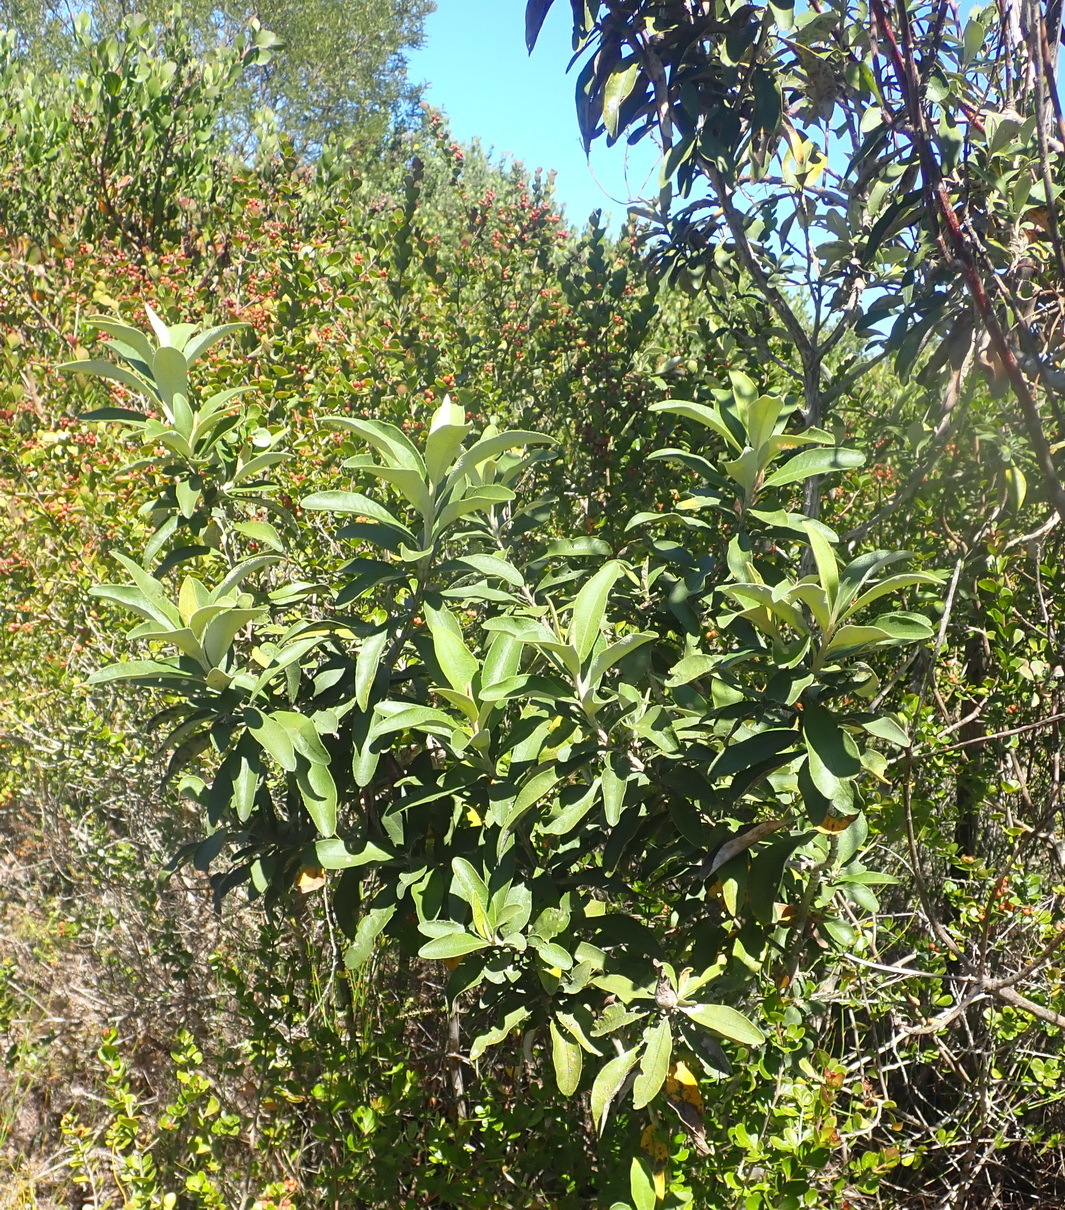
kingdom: Plantae
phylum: Tracheophyta
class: Magnoliopsida
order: Asterales
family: Asteraceae
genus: Tarchonanthus
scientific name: Tarchonanthus littoralis
